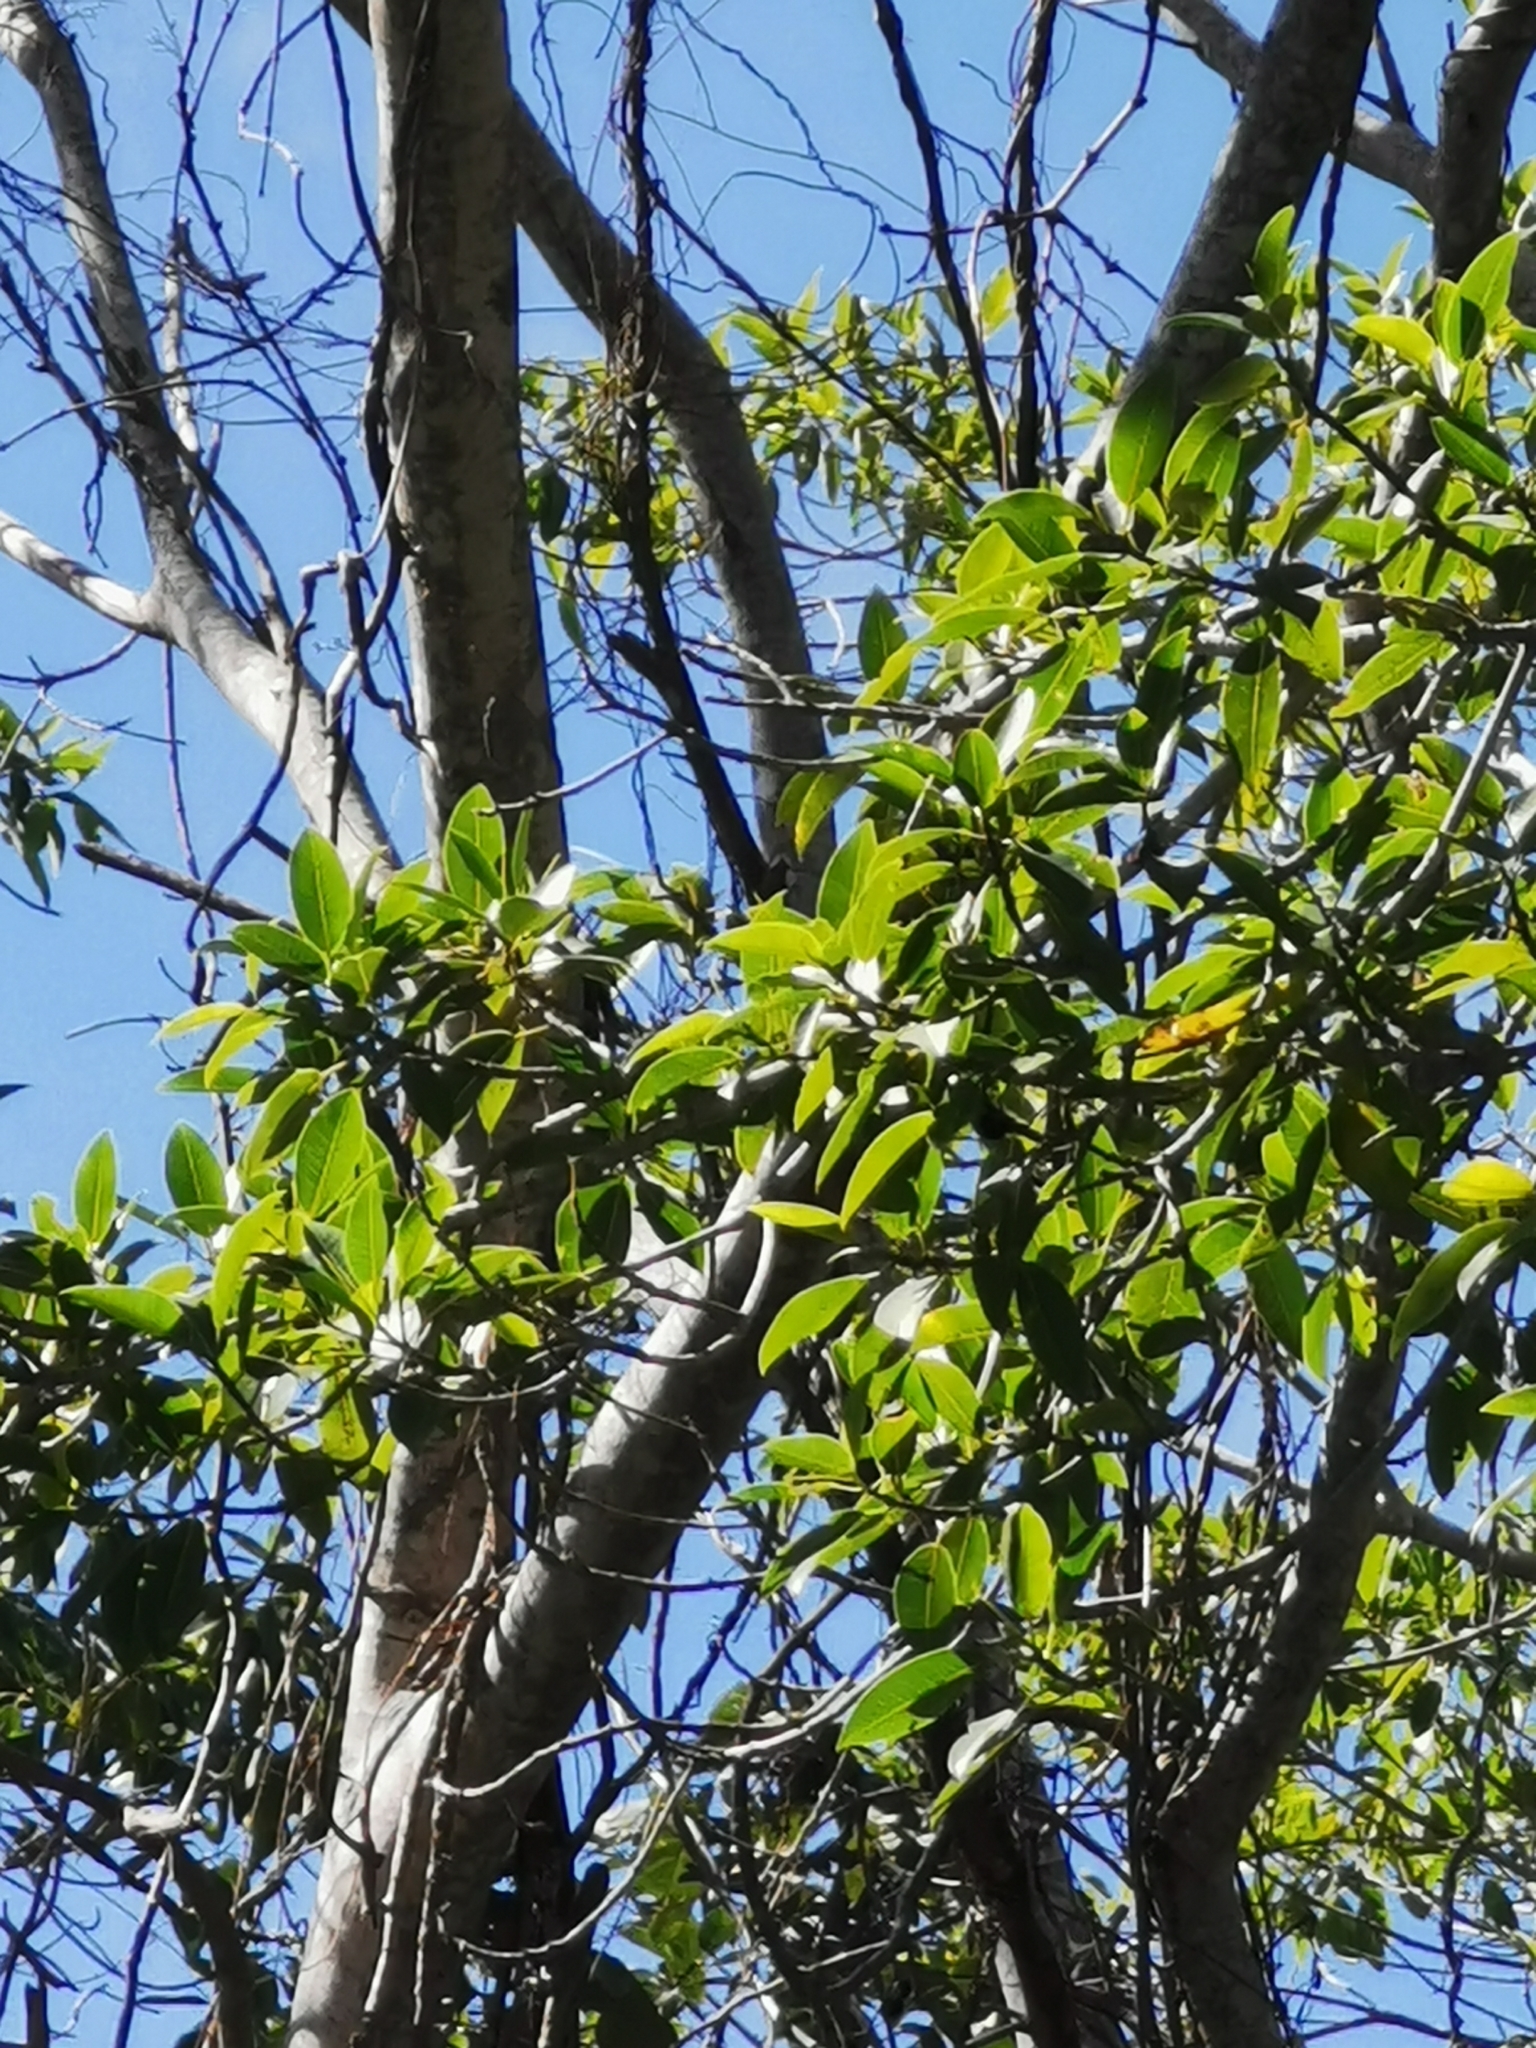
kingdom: Plantae
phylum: Tracheophyta
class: Magnoliopsida
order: Rosales
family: Moraceae
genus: Ficus
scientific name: Ficus insipida
